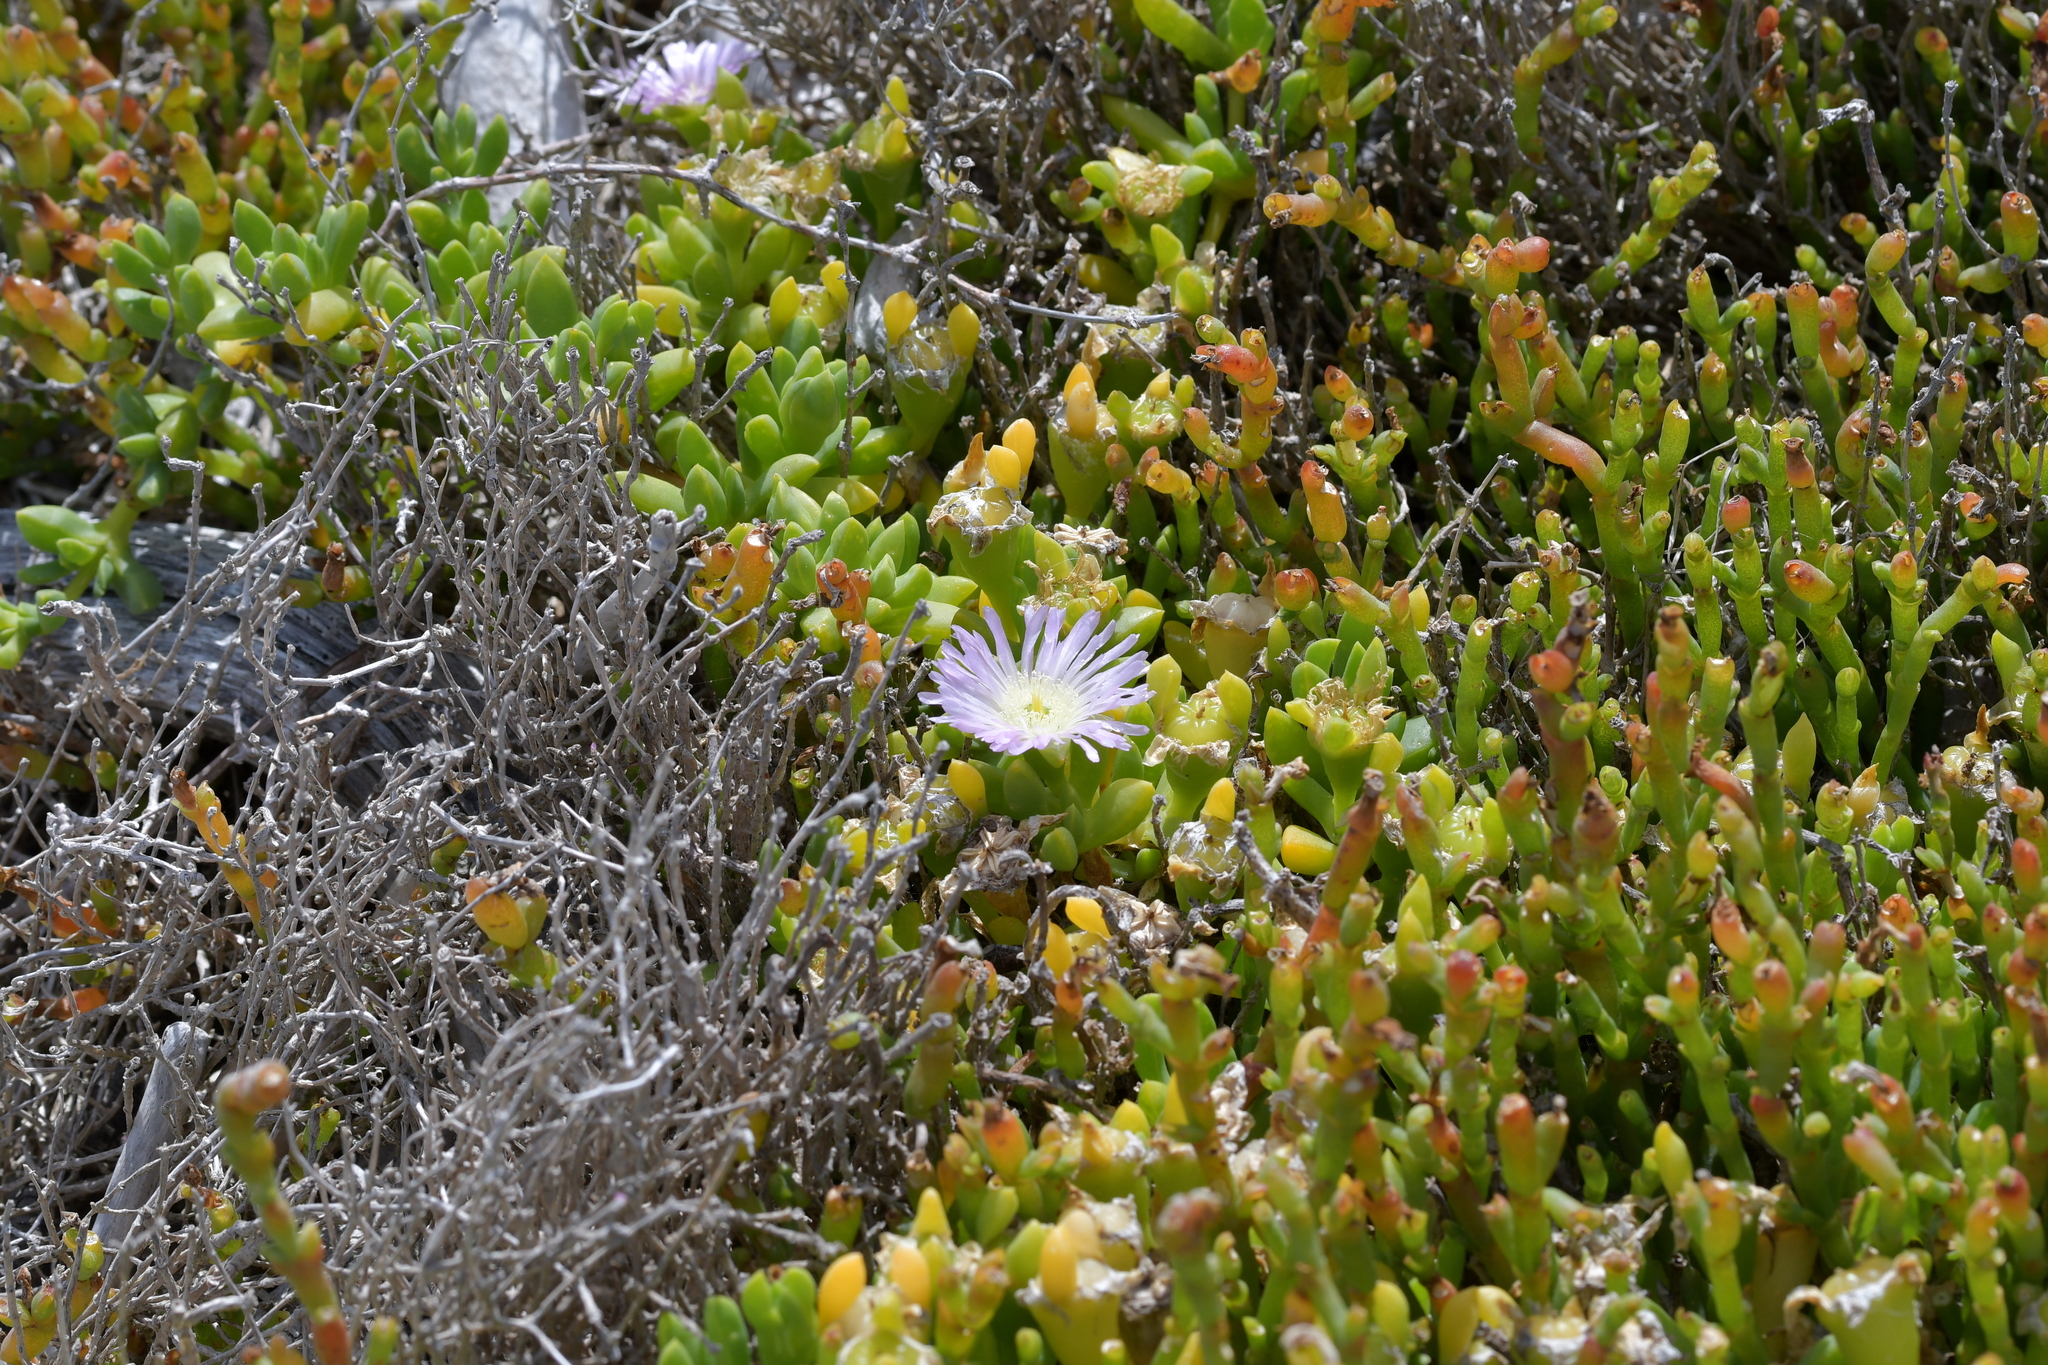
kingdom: Plantae
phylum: Tracheophyta
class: Magnoliopsida
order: Caryophyllales
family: Aizoaceae
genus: Disphyma
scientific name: Disphyma australe
